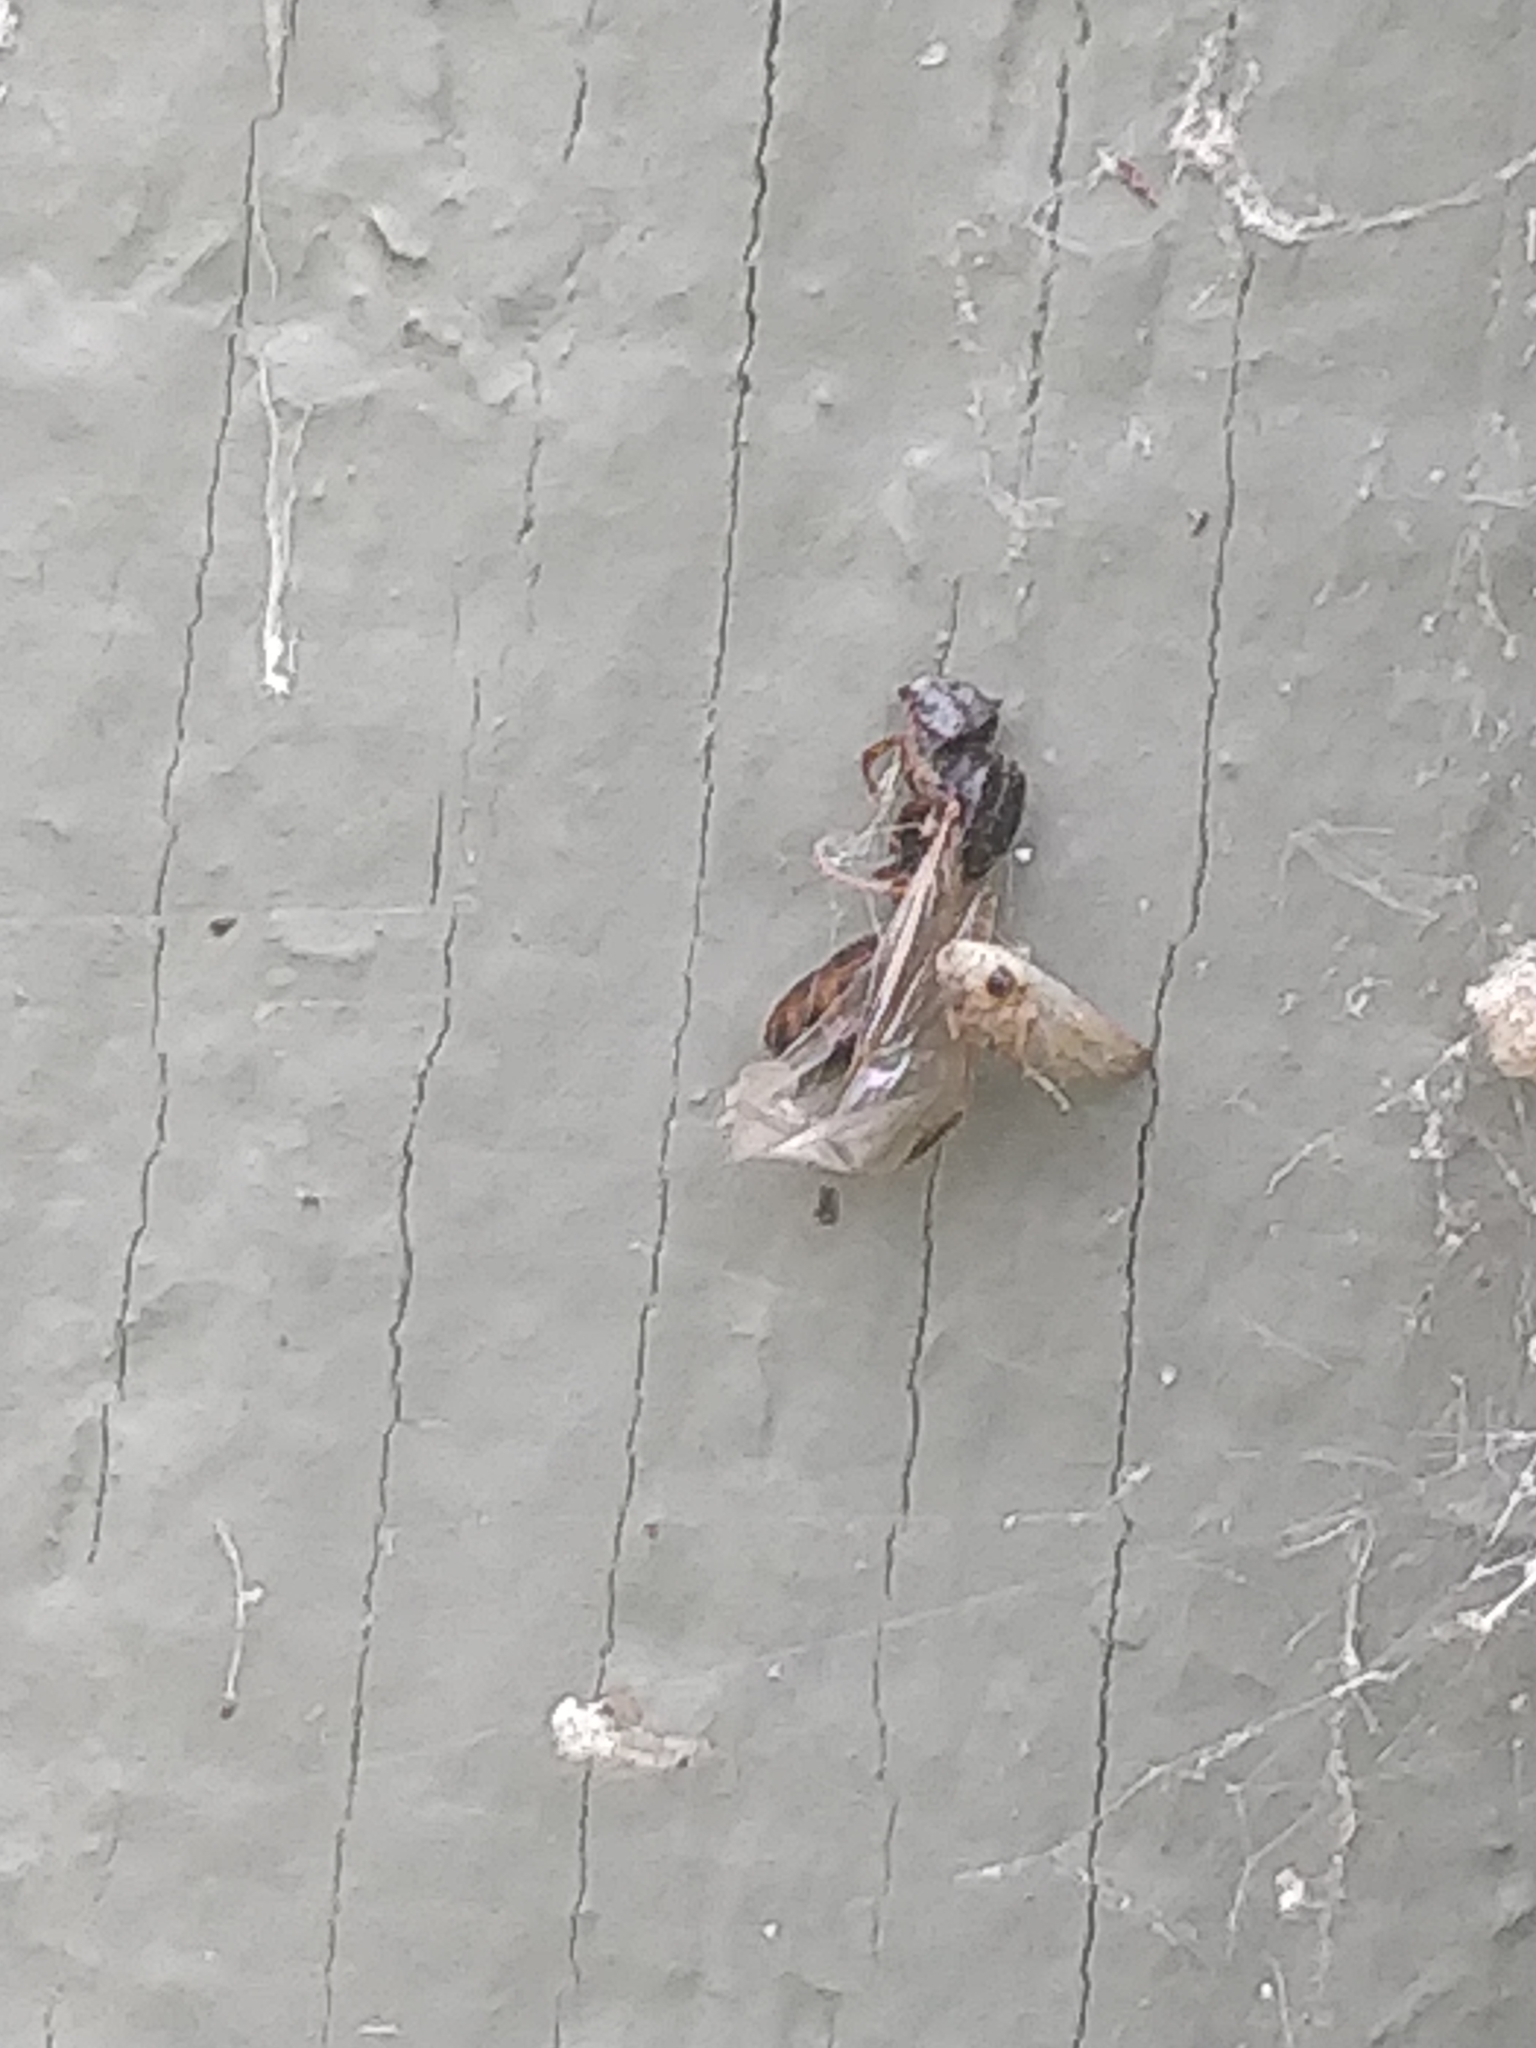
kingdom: Animalia
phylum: Arthropoda
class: Insecta
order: Hymenoptera
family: Formicidae
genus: Tetramorium
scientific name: Tetramorium immigrans
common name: Pavement ant
